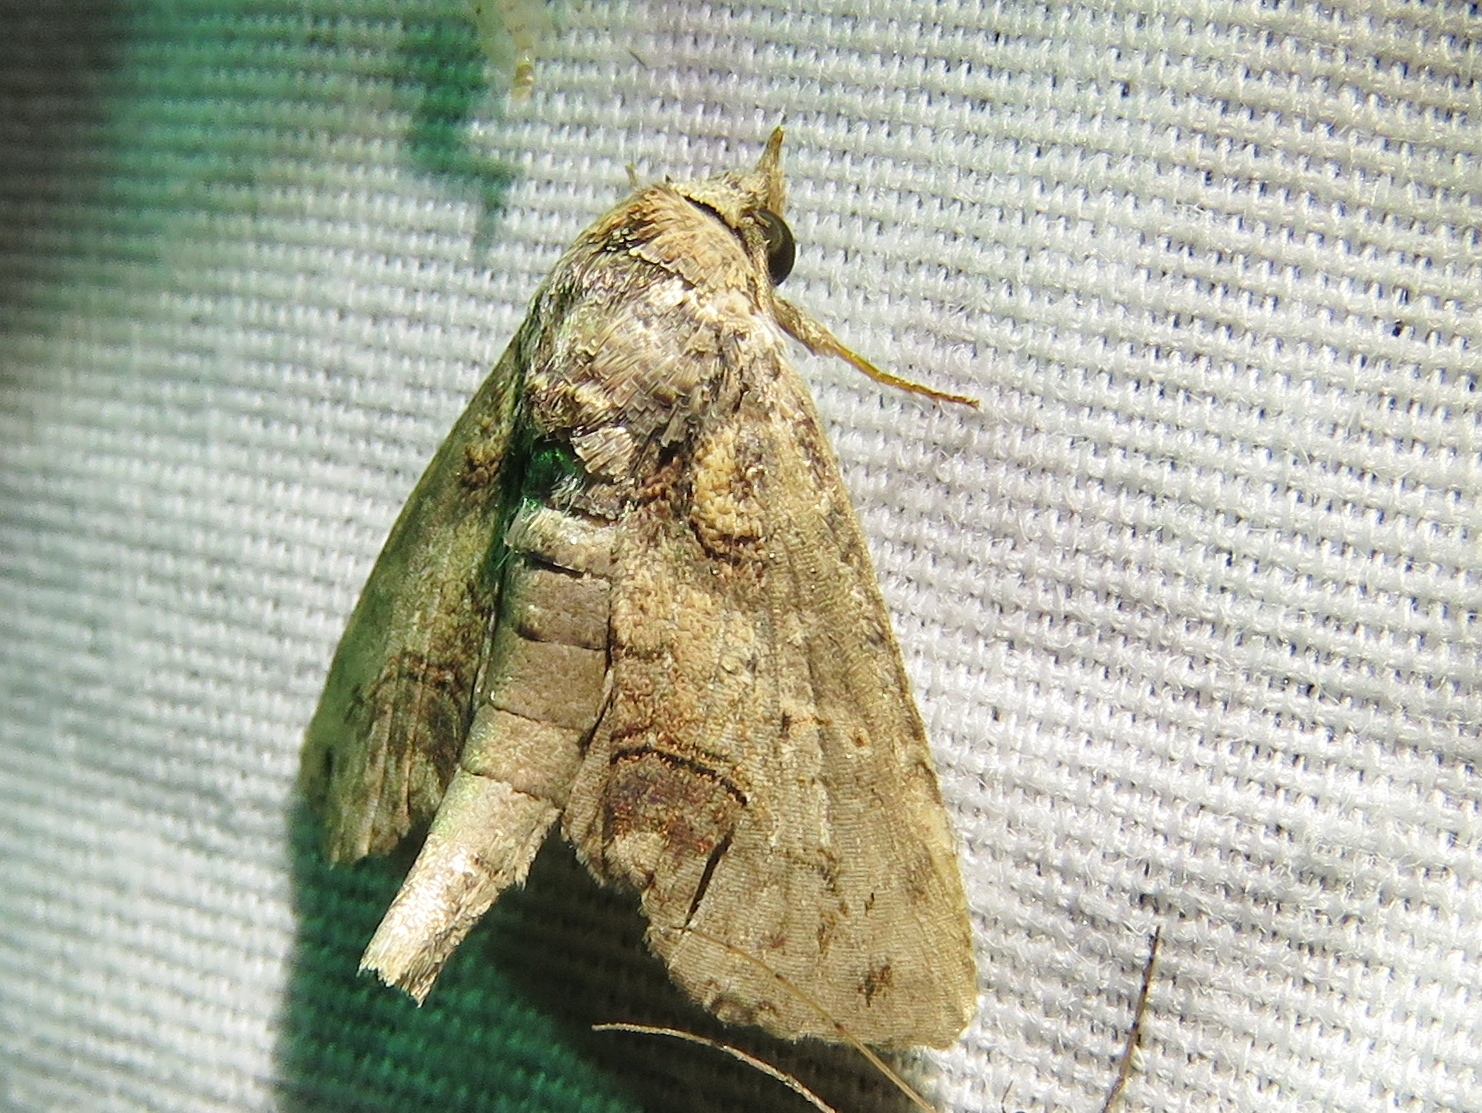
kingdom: Animalia
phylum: Arthropoda
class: Insecta
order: Lepidoptera
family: Euteliidae
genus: Paectes
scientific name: Paectes abrostoloides
